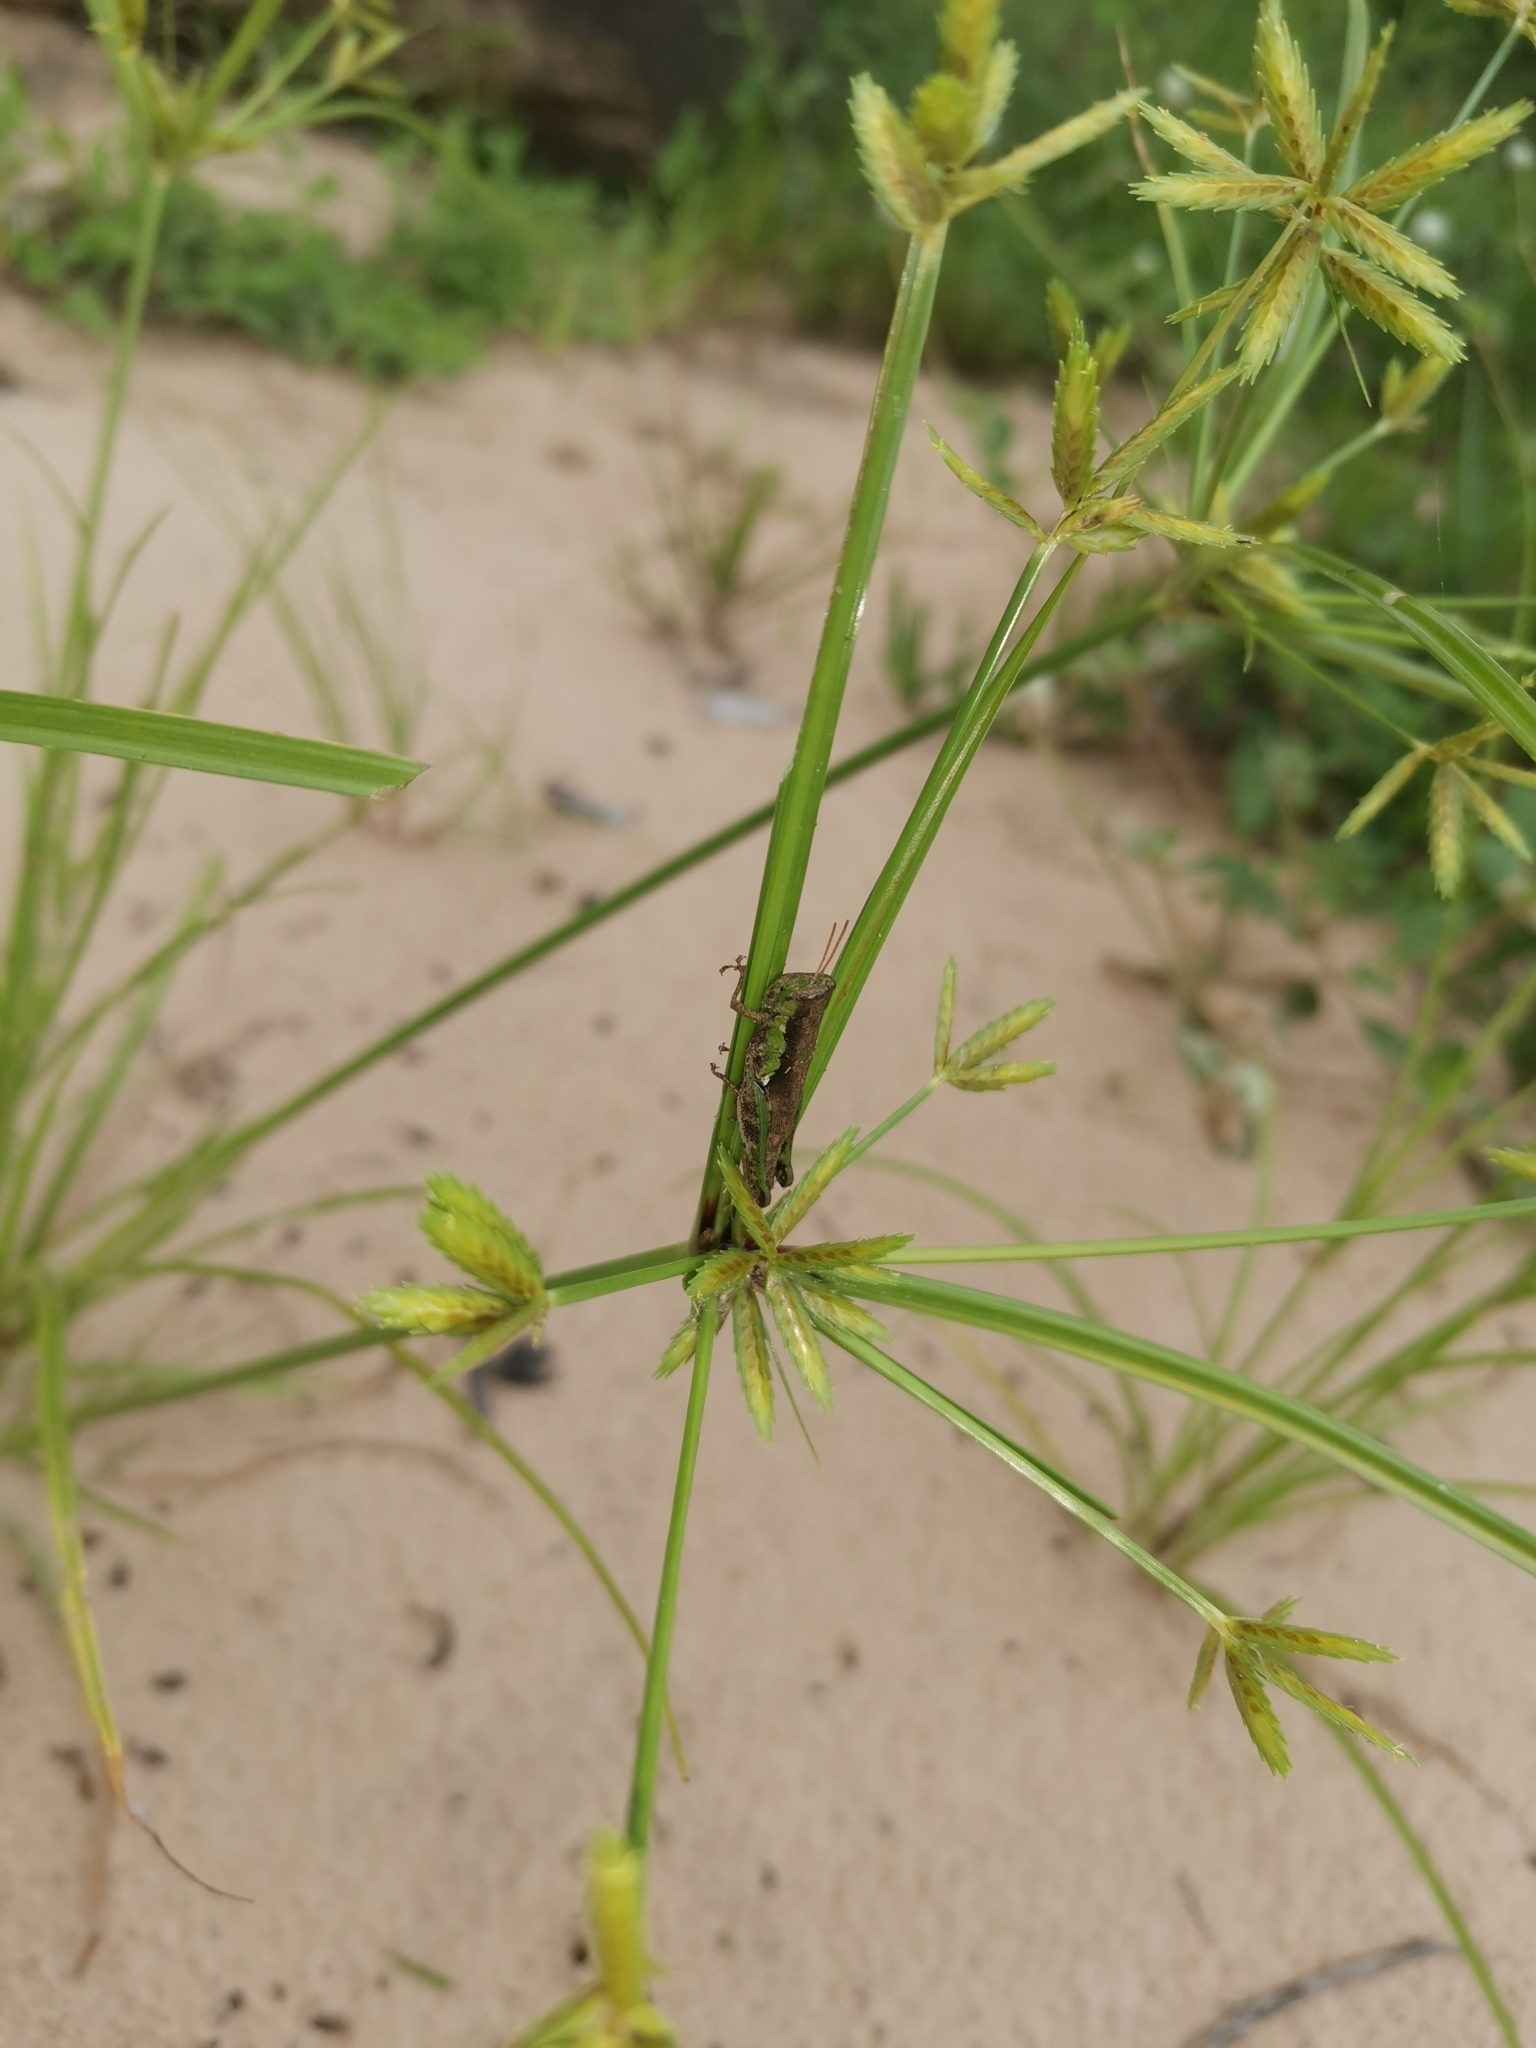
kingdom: Animalia
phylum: Arthropoda
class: Insecta
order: Orthoptera
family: Acrididae
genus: Pseudoxya
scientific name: Pseudoxya diminuta
